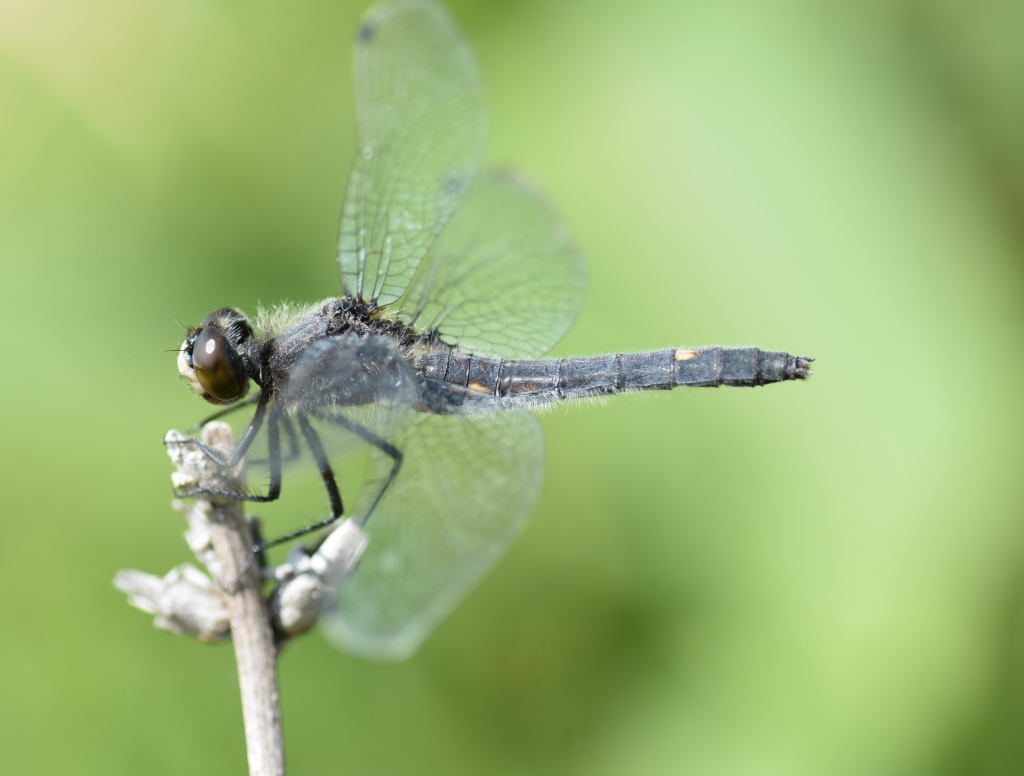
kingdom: Animalia
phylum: Arthropoda
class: Insecta
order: Odonata
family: Libellulidae
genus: Leucorrhinia
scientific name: Leucorrhinia intacta
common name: Dot-tailed whiteface
